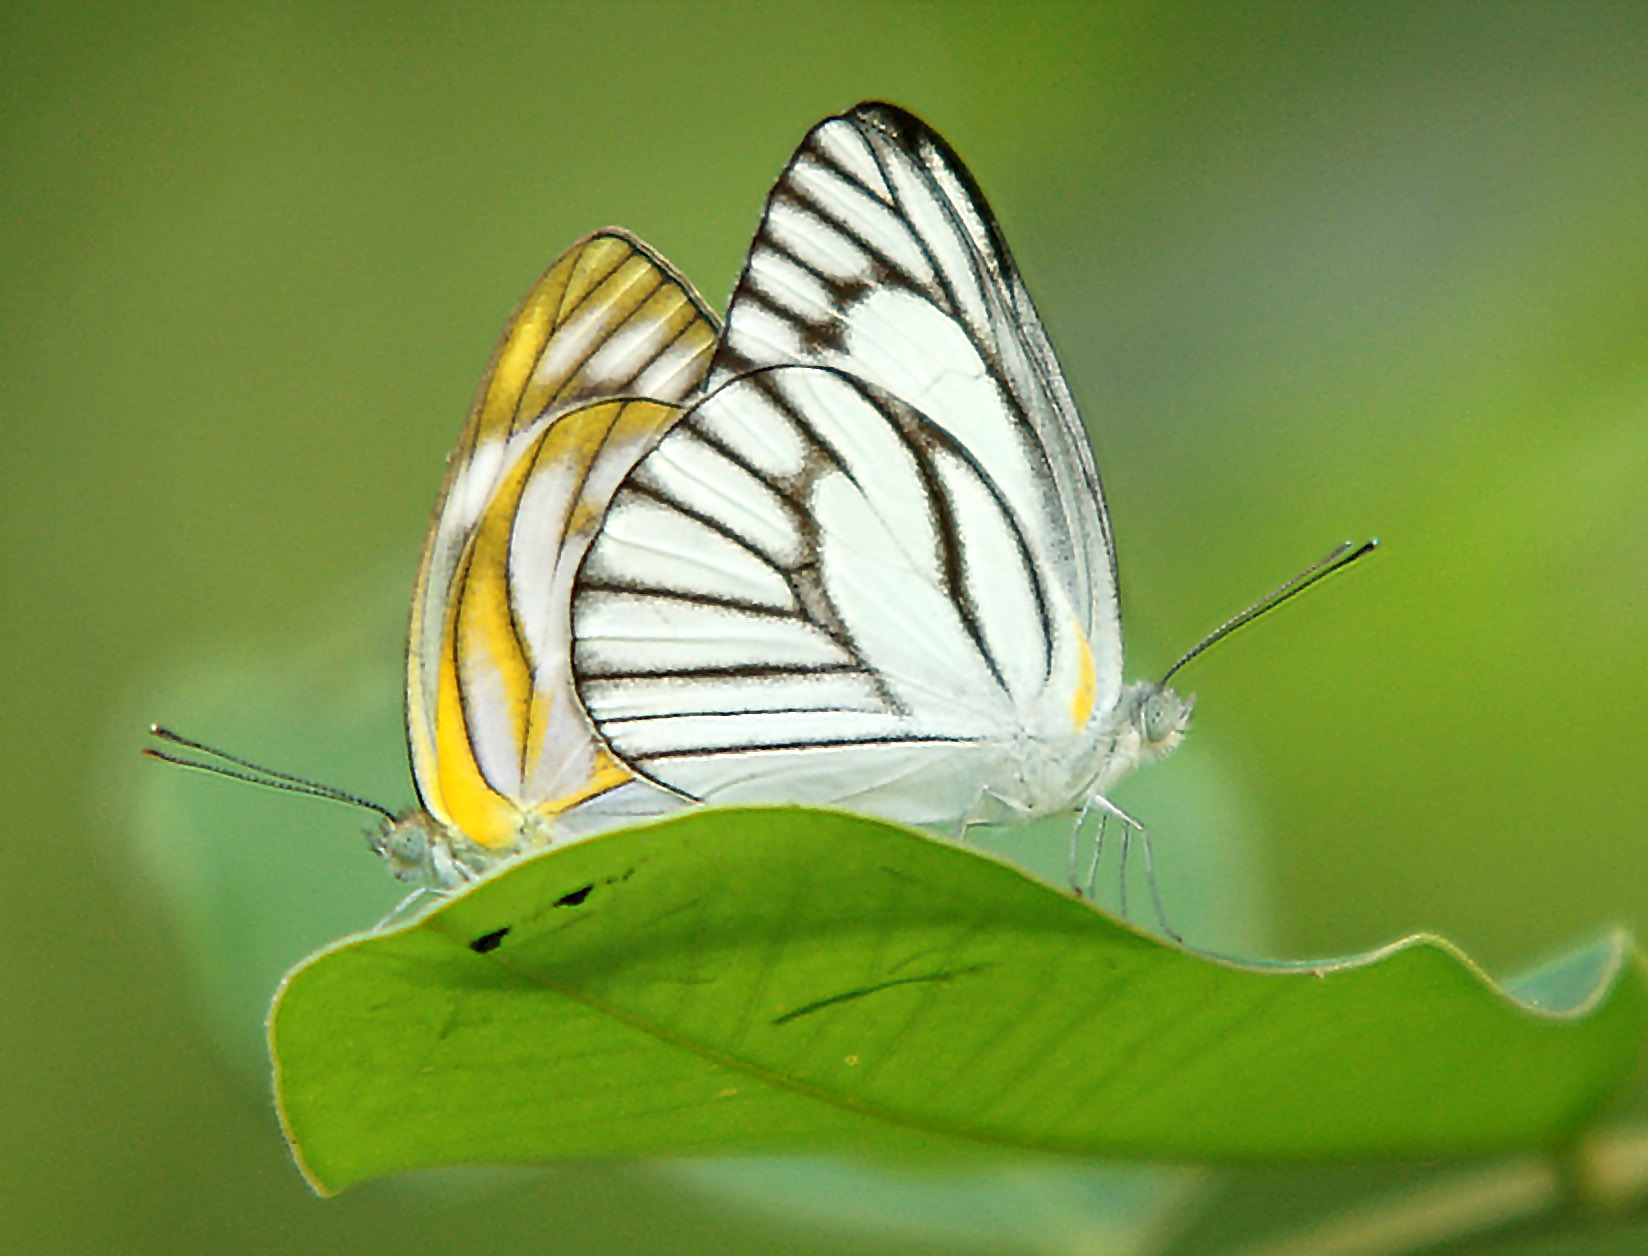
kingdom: Animalia
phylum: Arthropoda
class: Insecta
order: Lepidoptera
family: Pieridae
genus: Appias
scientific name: Appias libythea
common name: Striped albatross
